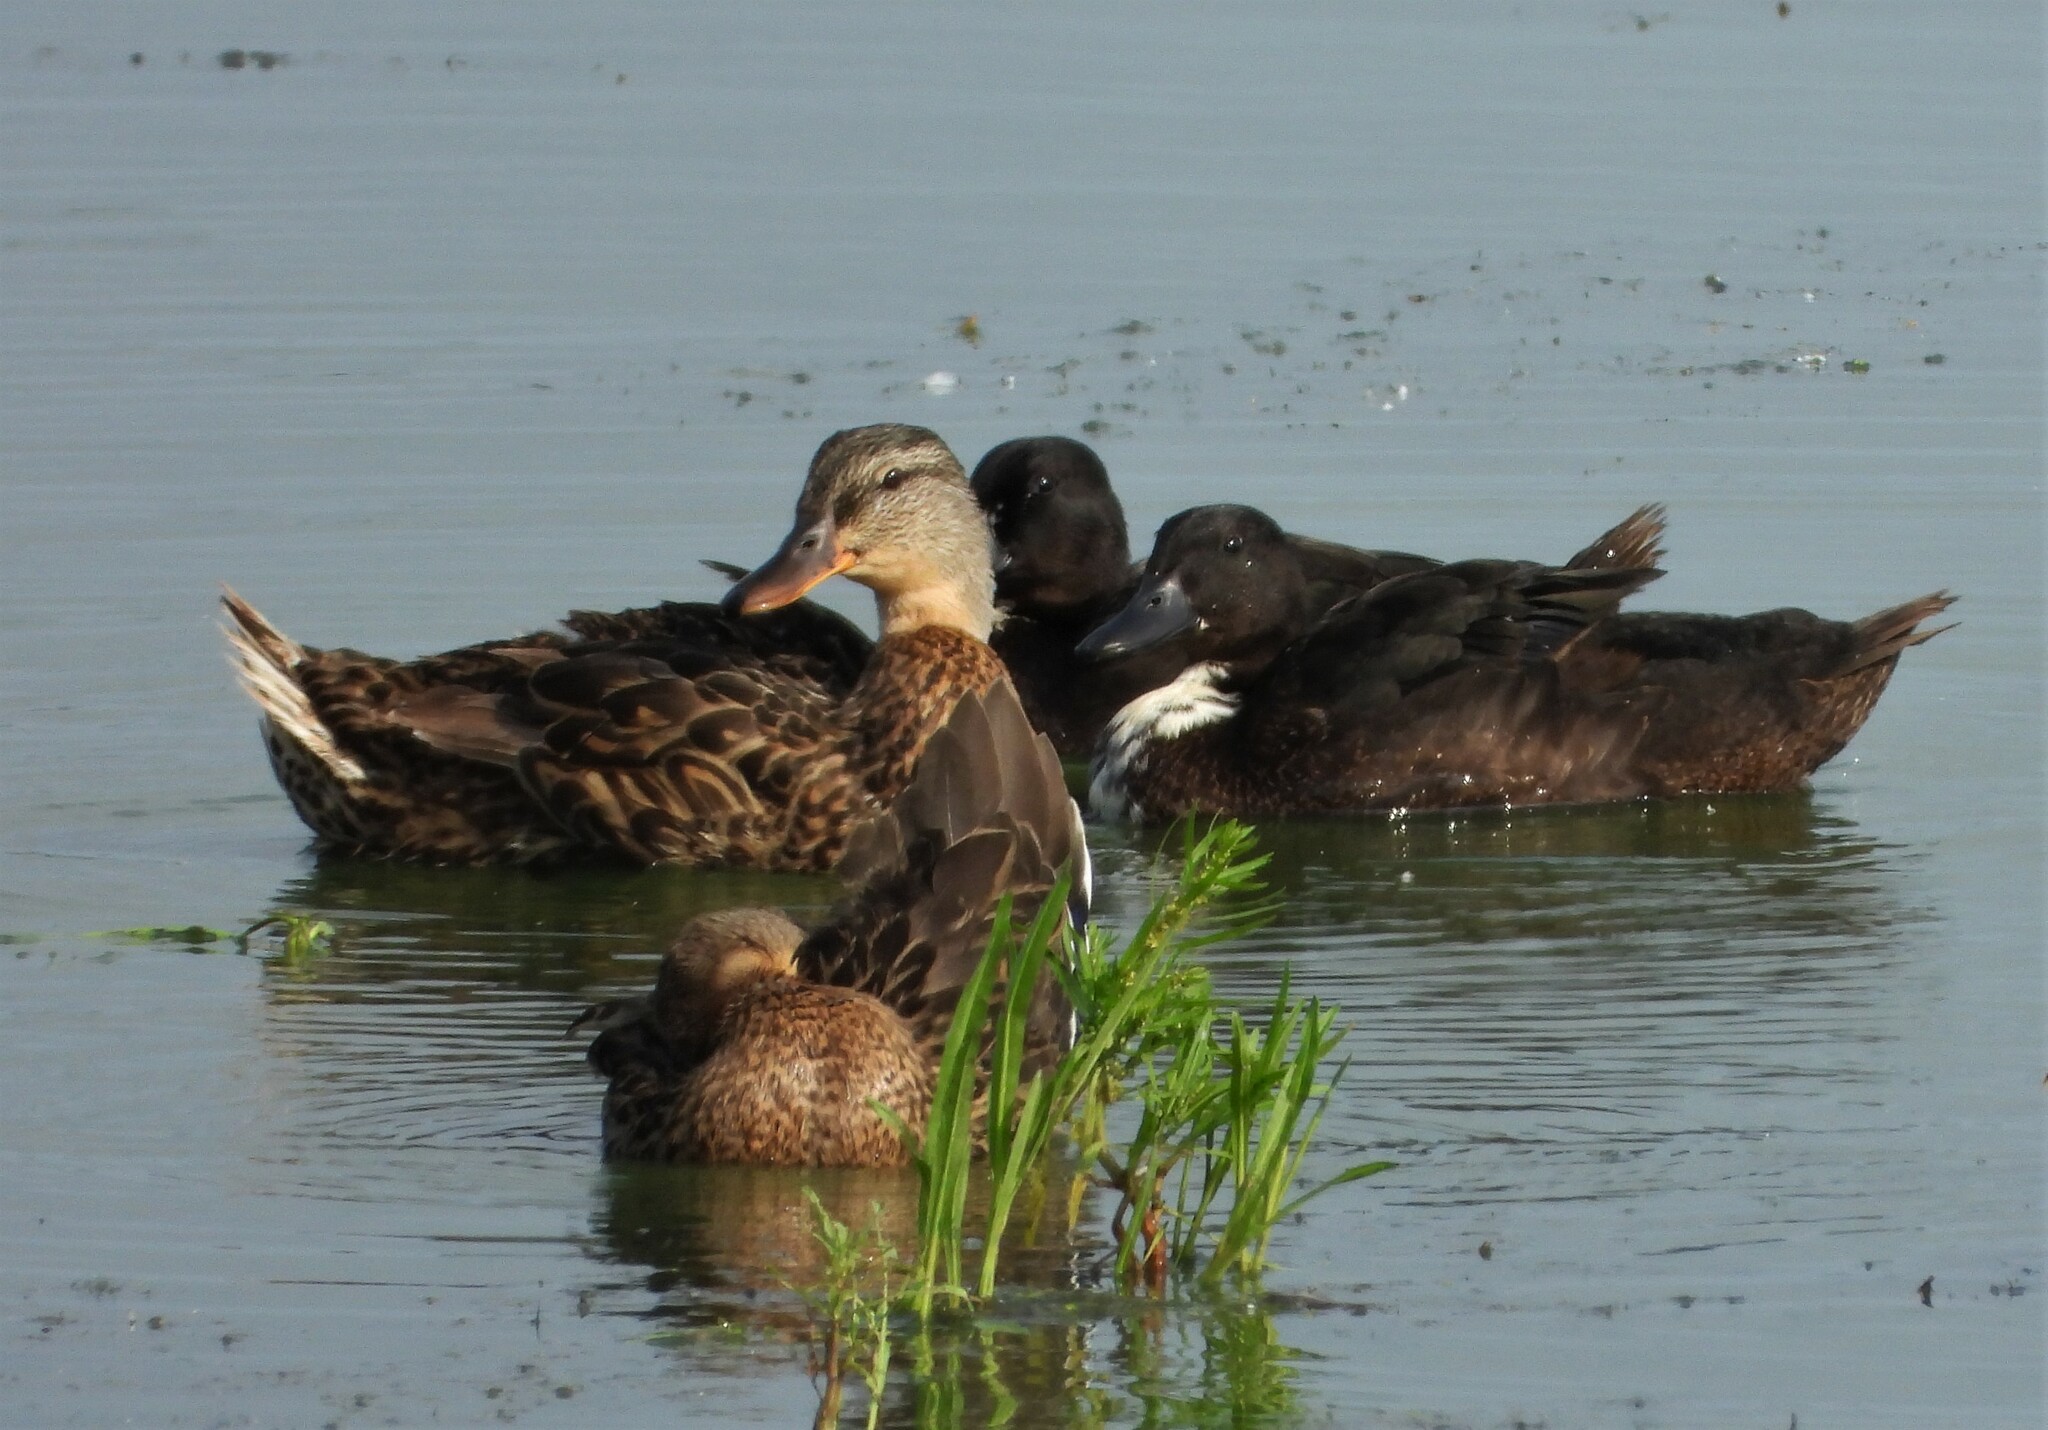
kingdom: Animalia
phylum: Chordata
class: Aves
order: Anseriformes
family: Anatidae
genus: Anas
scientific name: Anas platyrhynchos
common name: Mallard
